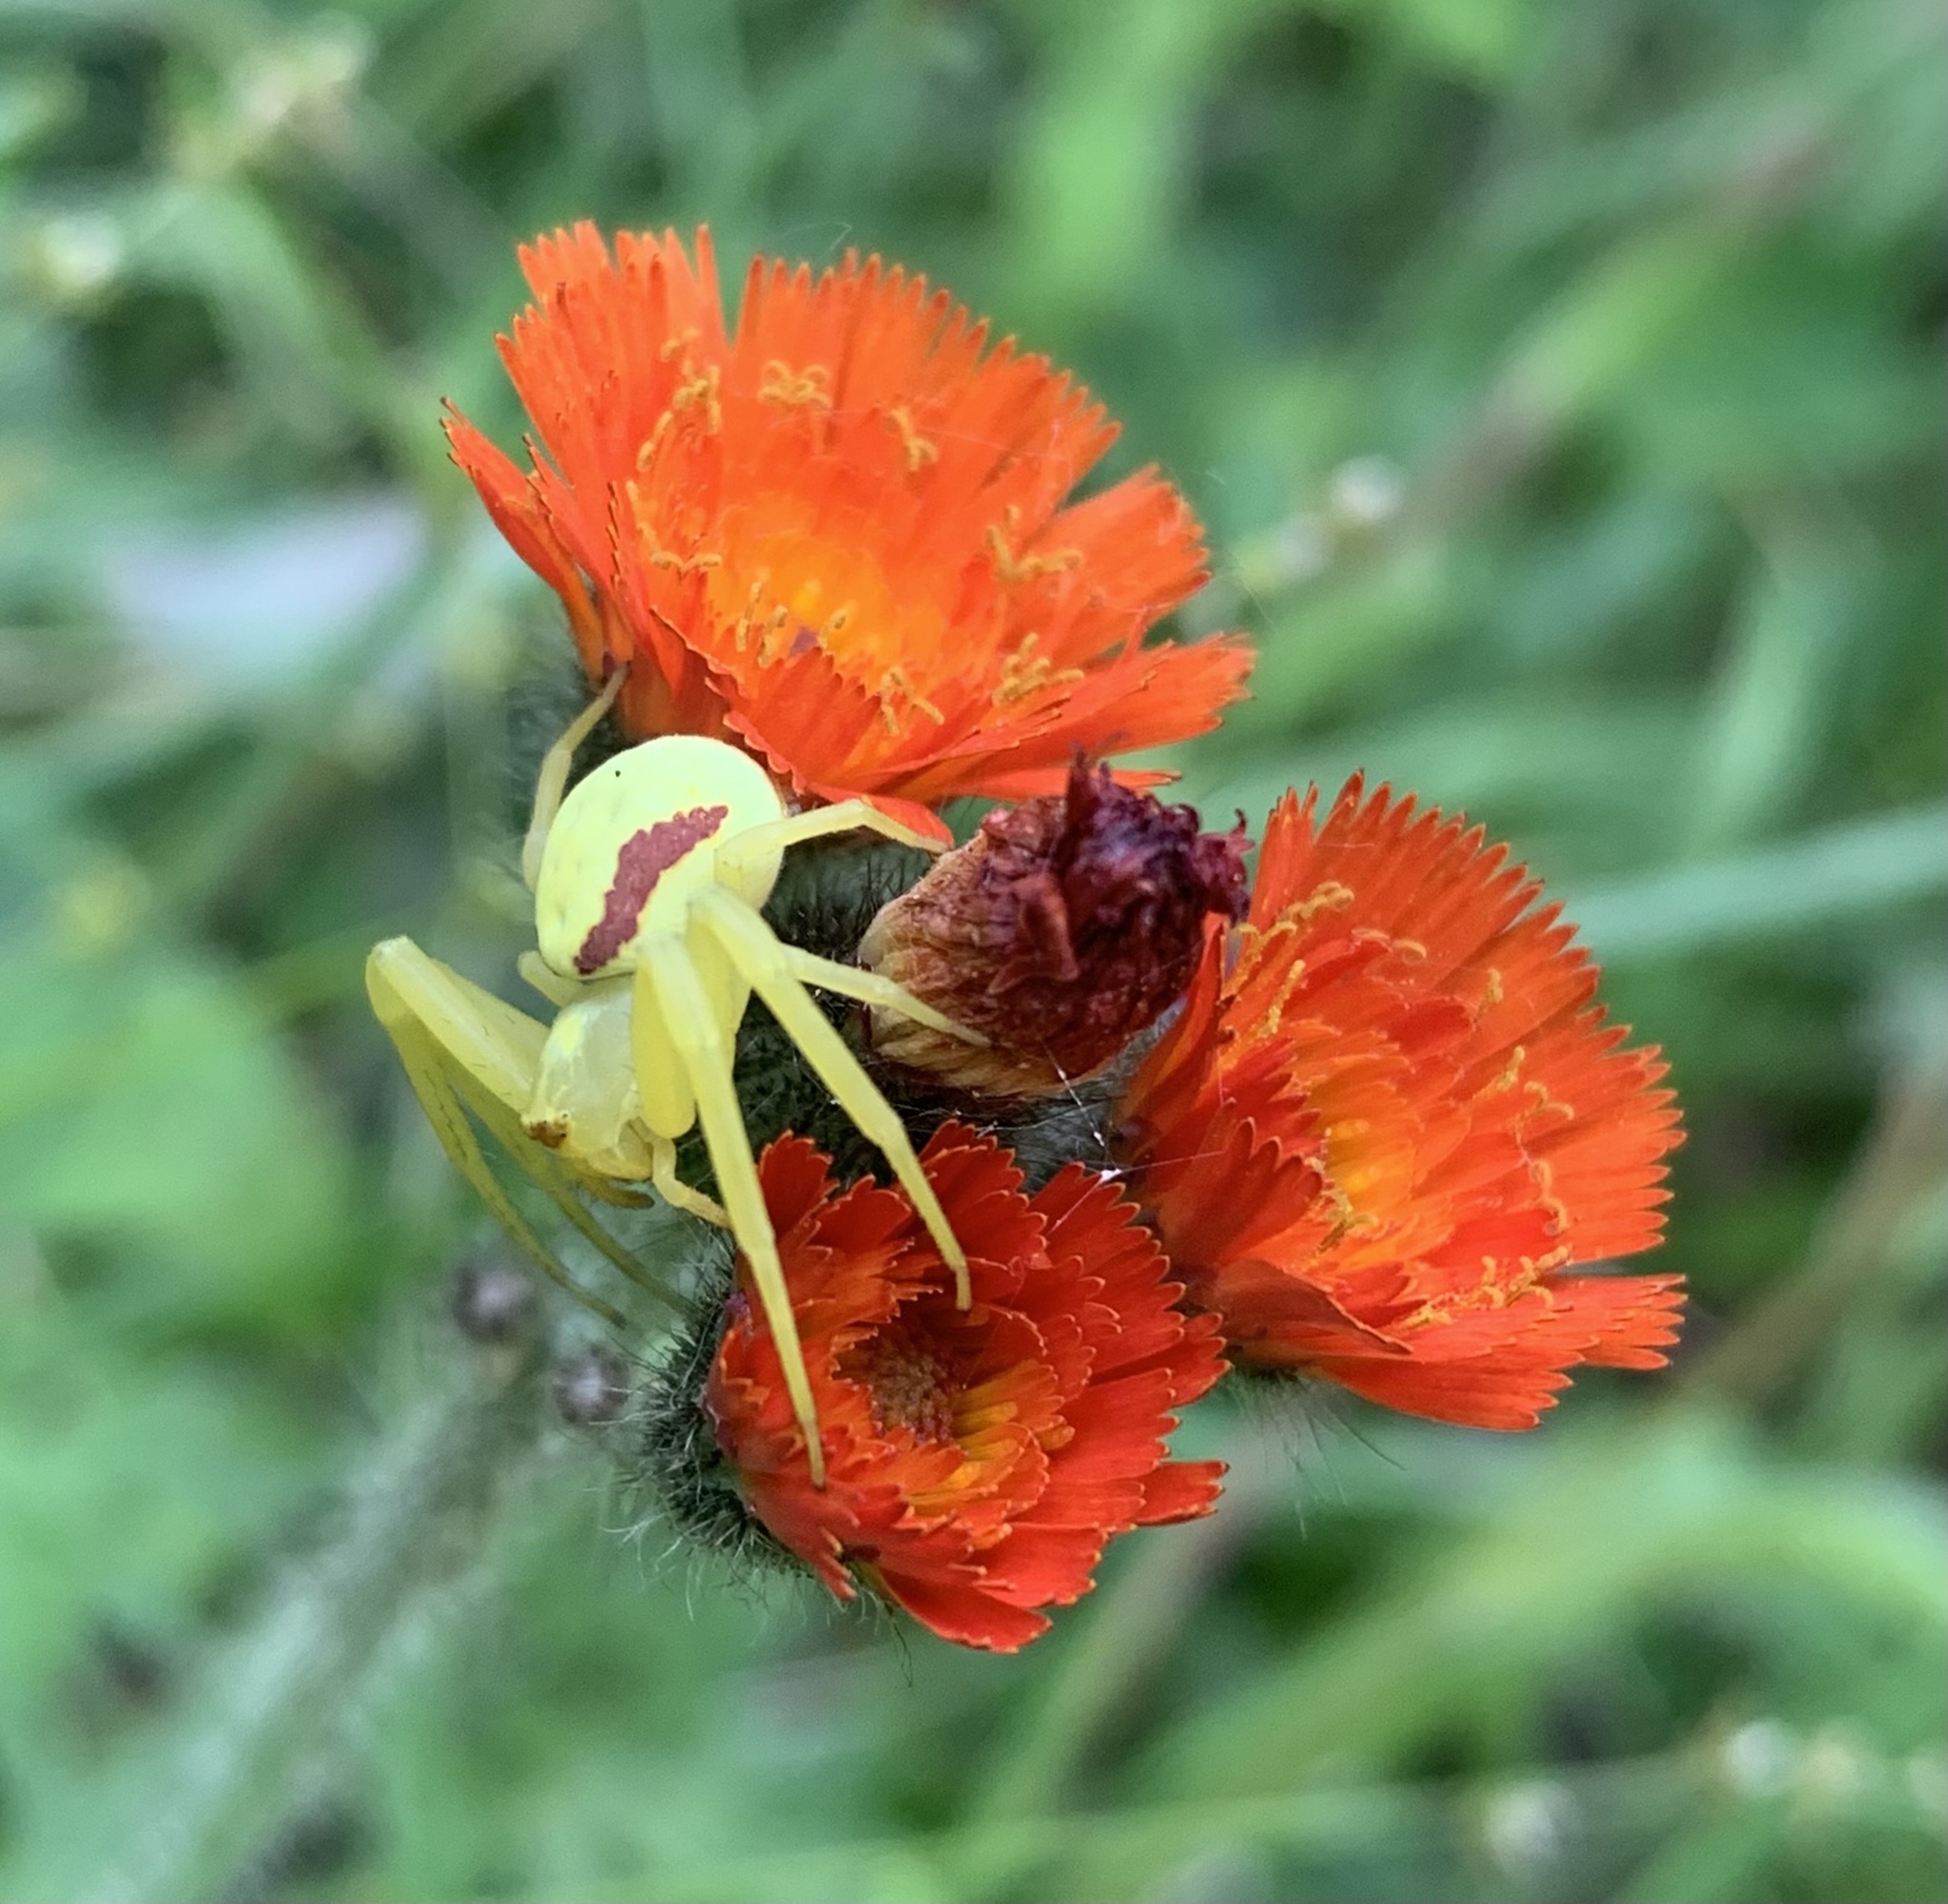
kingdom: Animalia
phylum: Arthropoda
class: Arachnida
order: Araneae
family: Thomisidae
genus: Misumena
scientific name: Misumena vatia
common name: Goldenrod crab spider
